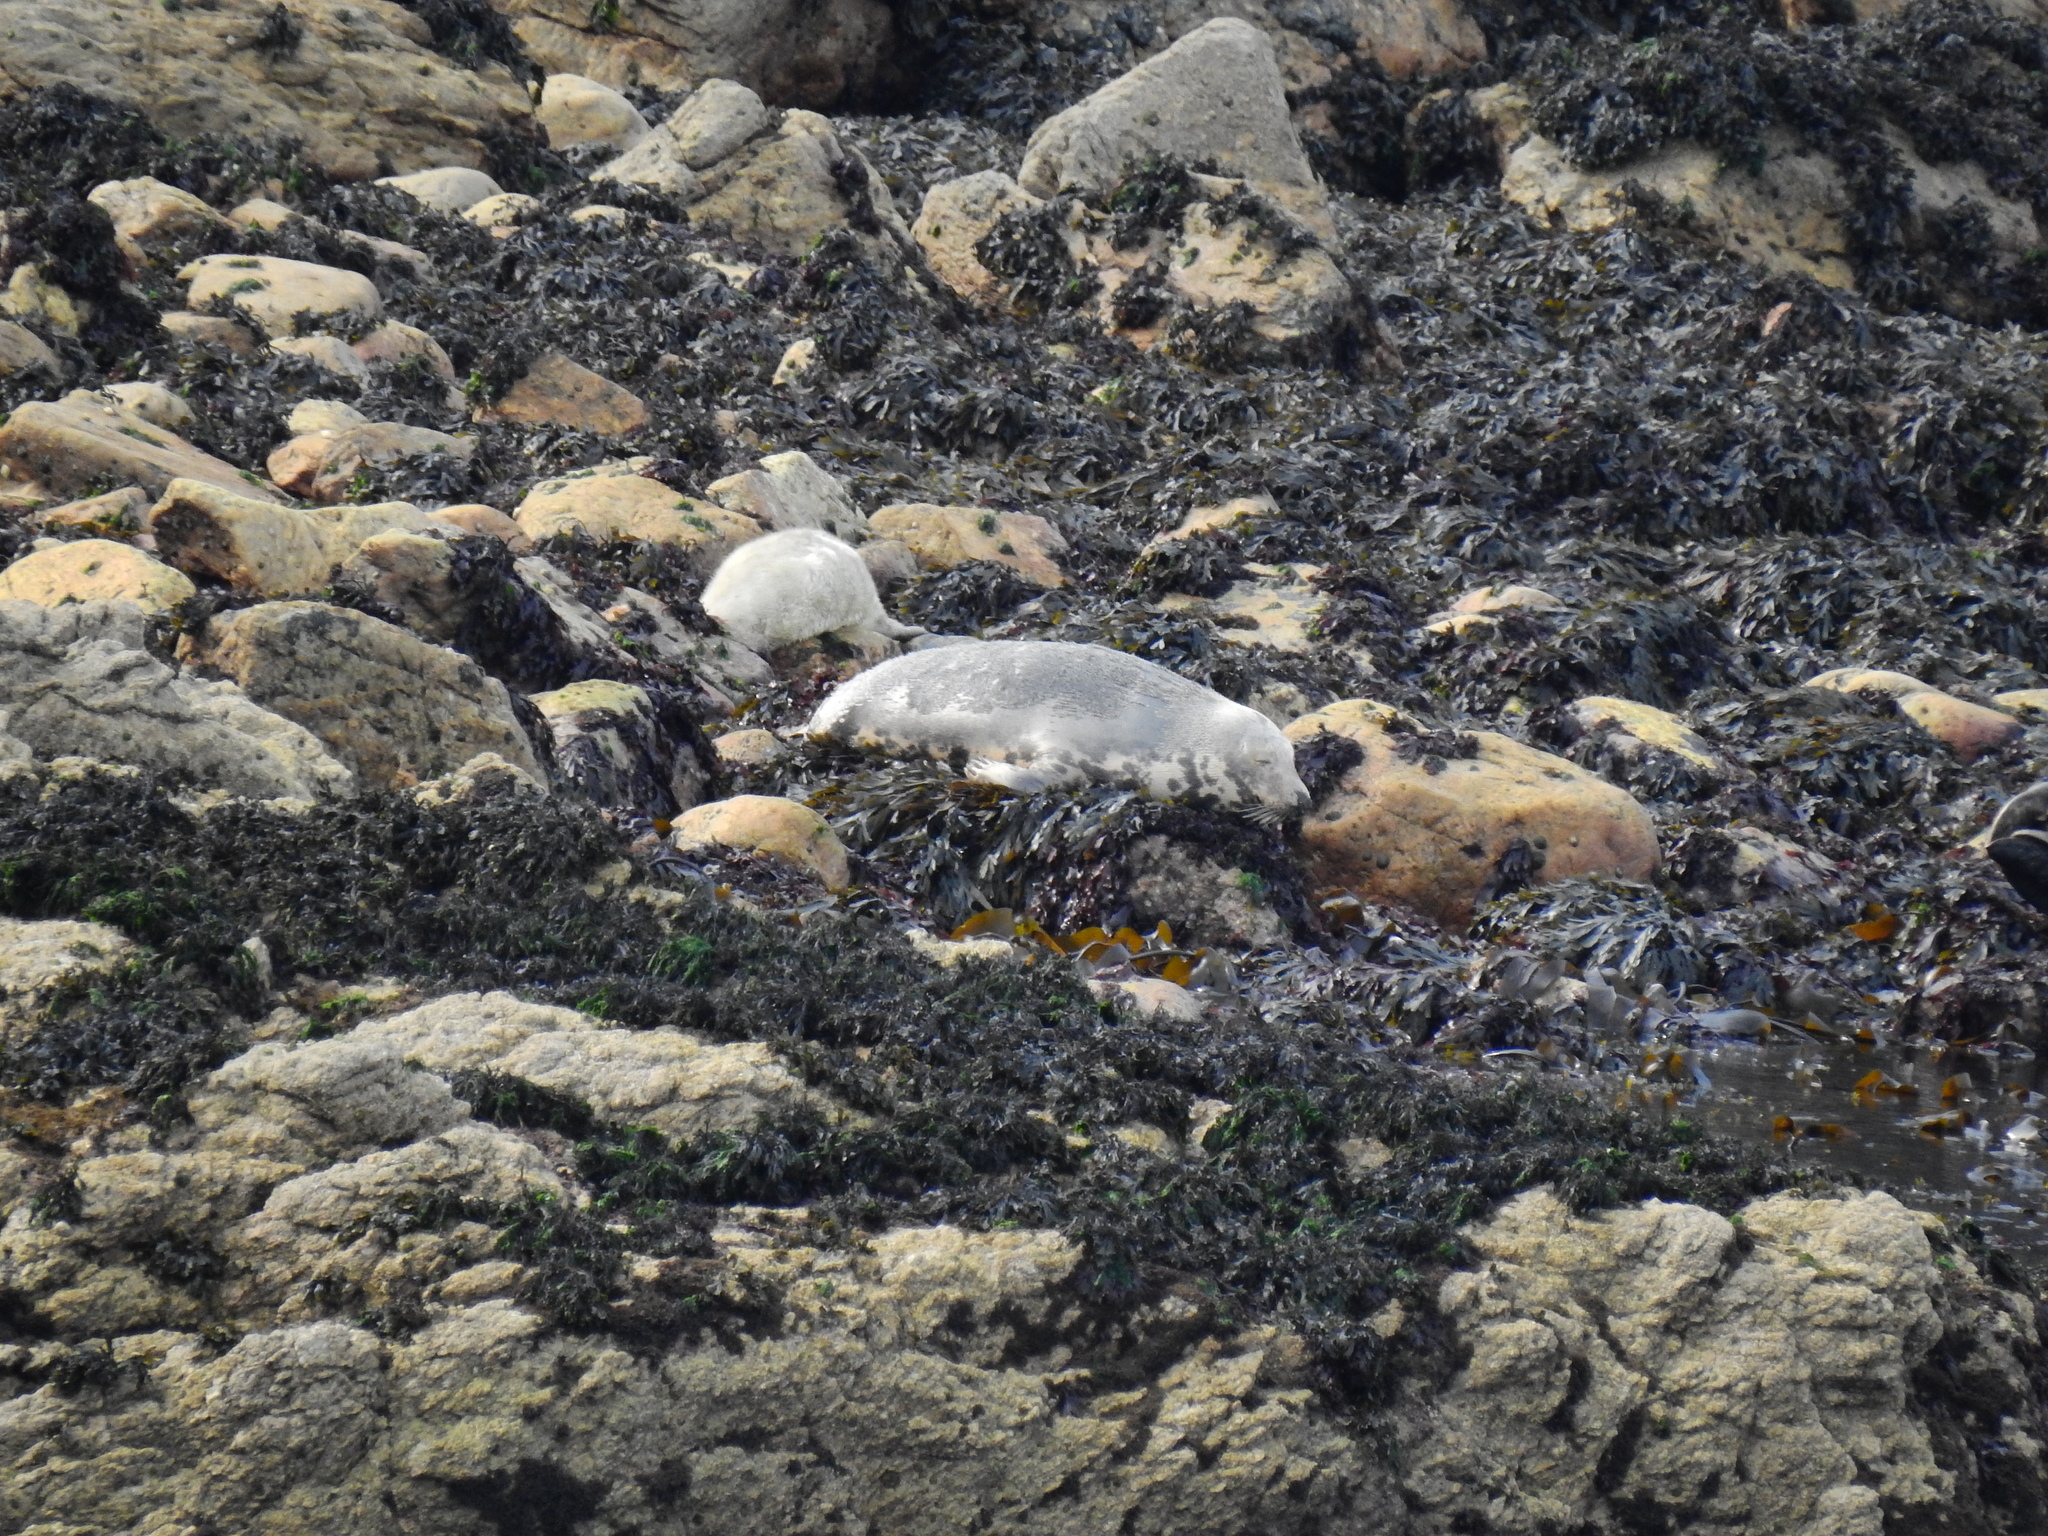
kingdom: Animalia
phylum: Chordata
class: Mammalia
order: Carnivora
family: Phocidae
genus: Halichoerus
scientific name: Halichoerus grypus
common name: Grey seal
